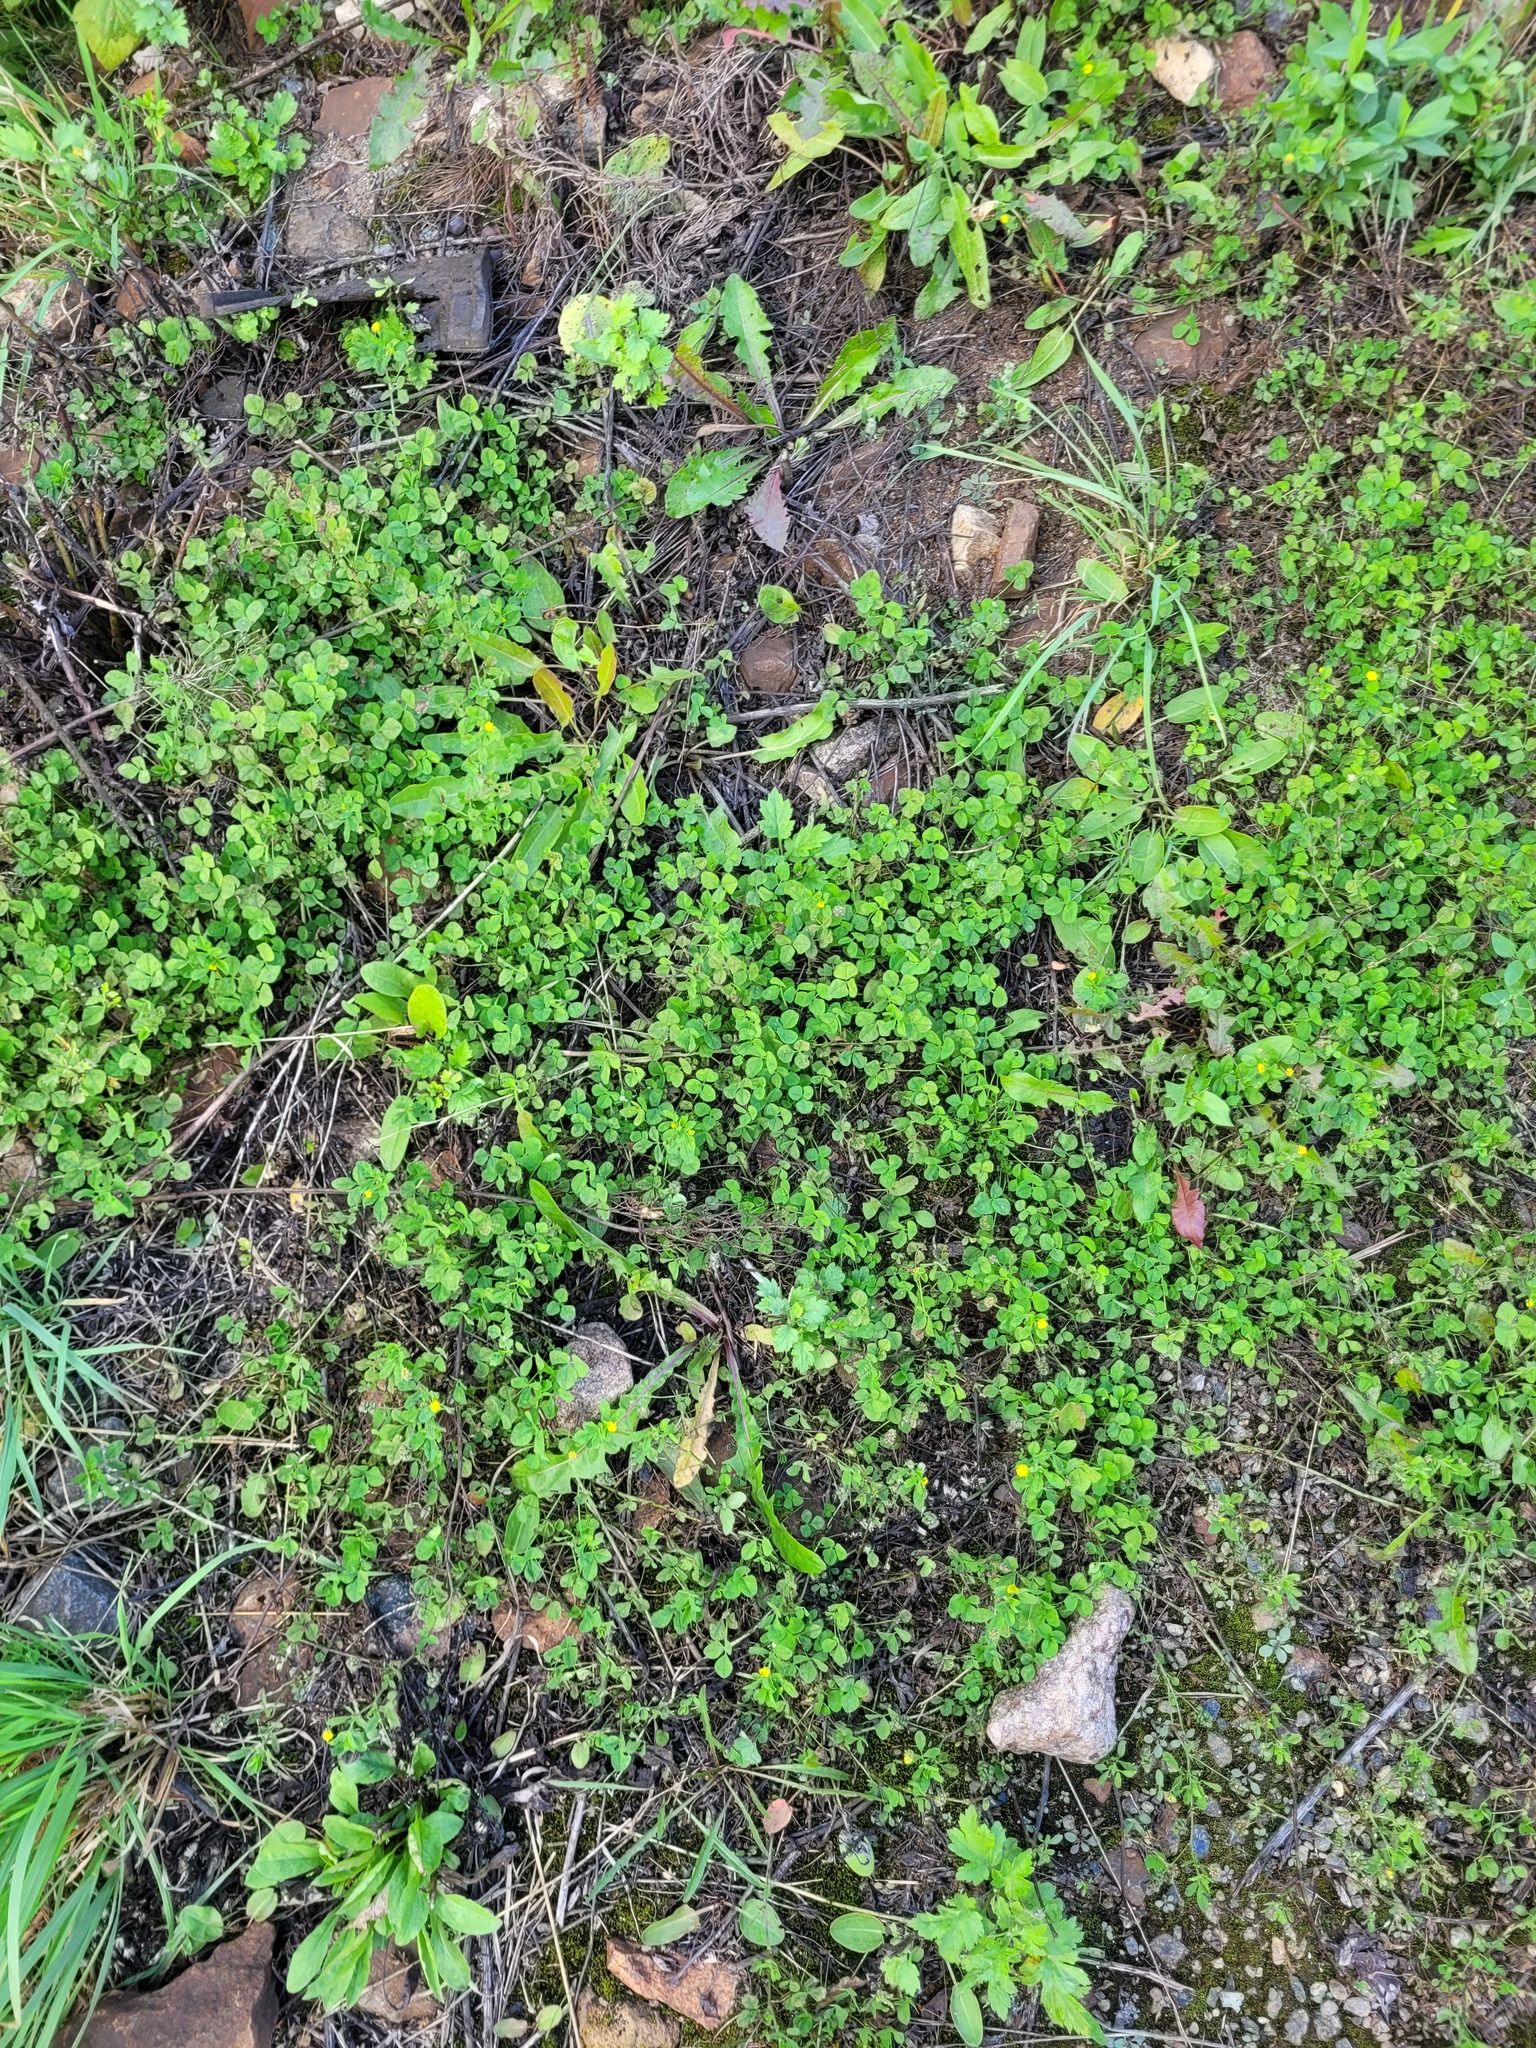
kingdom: Plantae
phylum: Tracheophyta
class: Magnoliopsida
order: Fabales
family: Fabaceae
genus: Medicago
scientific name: Medicago lupulina
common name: Black medick
